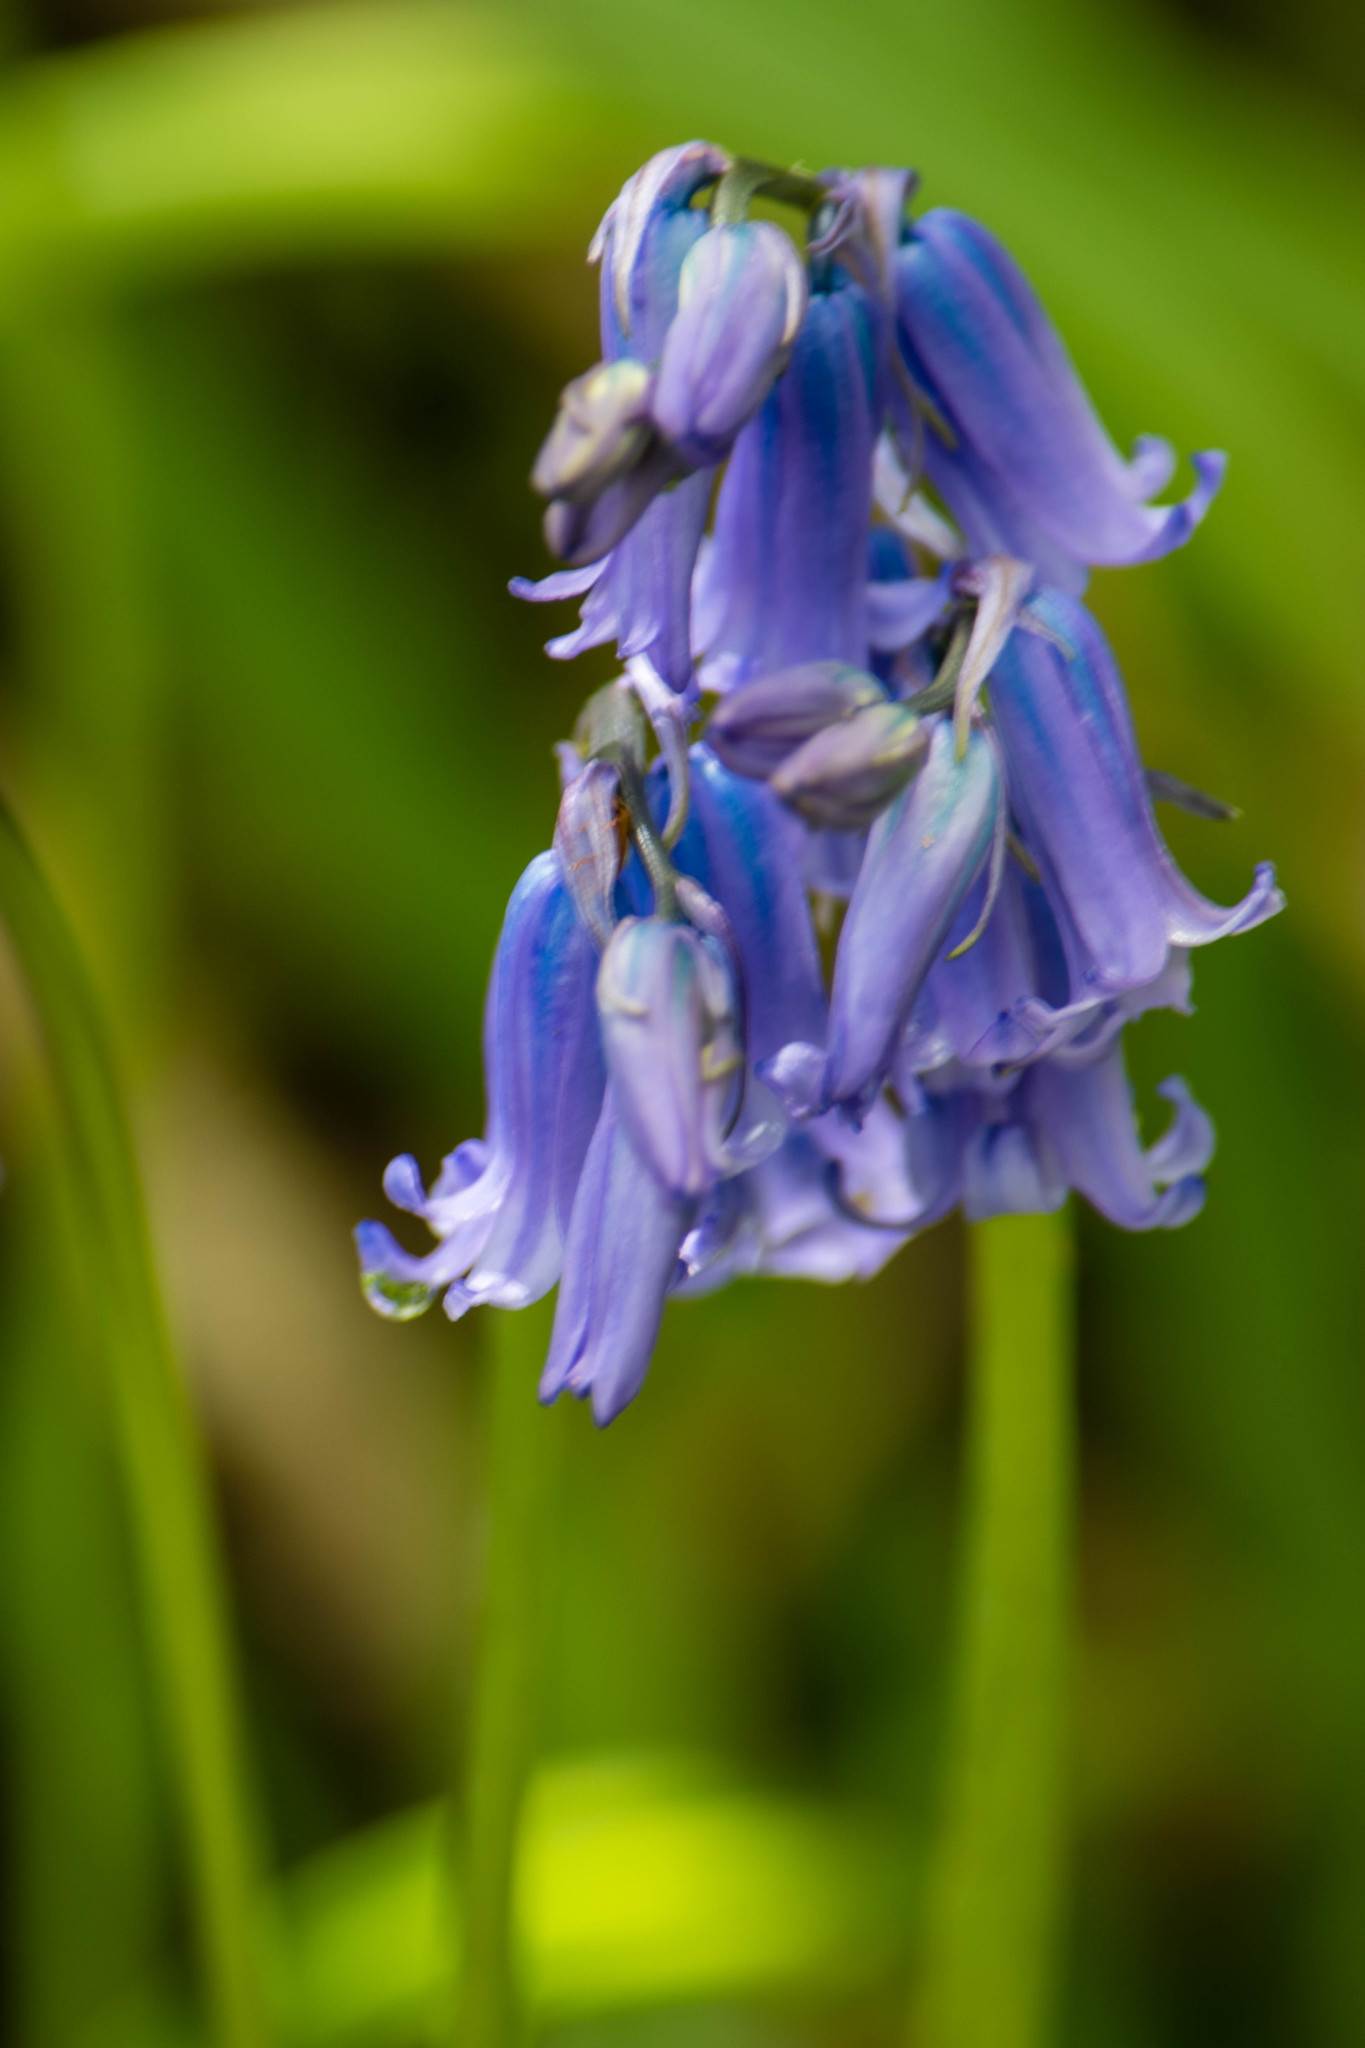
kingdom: Plantae
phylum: Tracheophyta
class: Liliopsida
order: Asparagales
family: Asparagaceae
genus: Hyacinthoides
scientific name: Hyacinthoides non-scripta
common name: Bluebell
